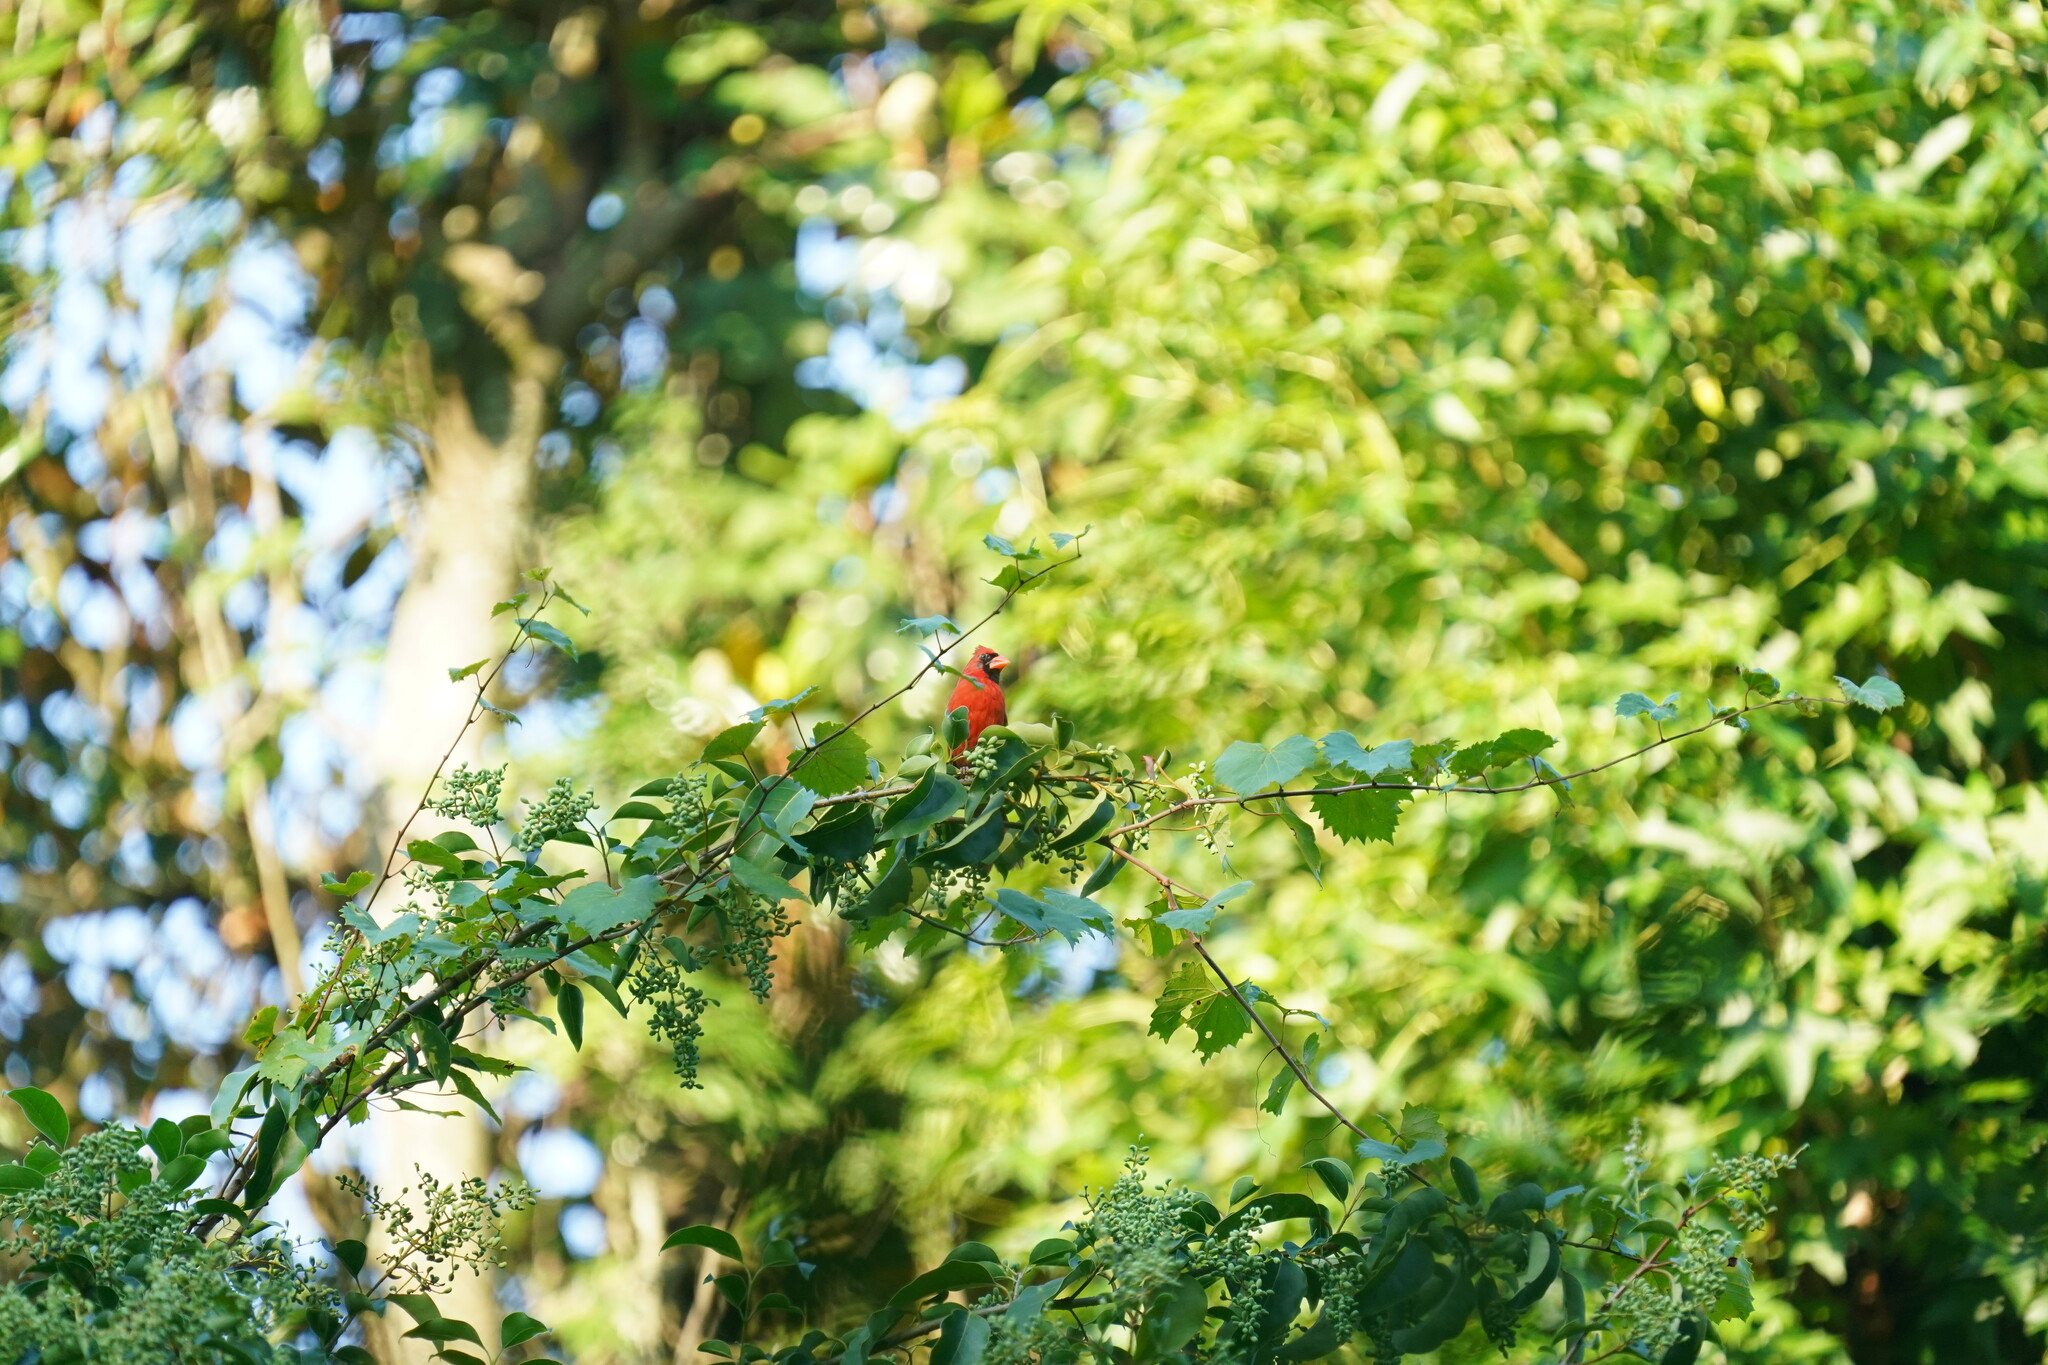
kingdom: Animalia
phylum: Chordata
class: Aves
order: Passeriformes
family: Cardinalidae
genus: Cardinalis
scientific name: Cardinalis cardinalis
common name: Northern cardinal
